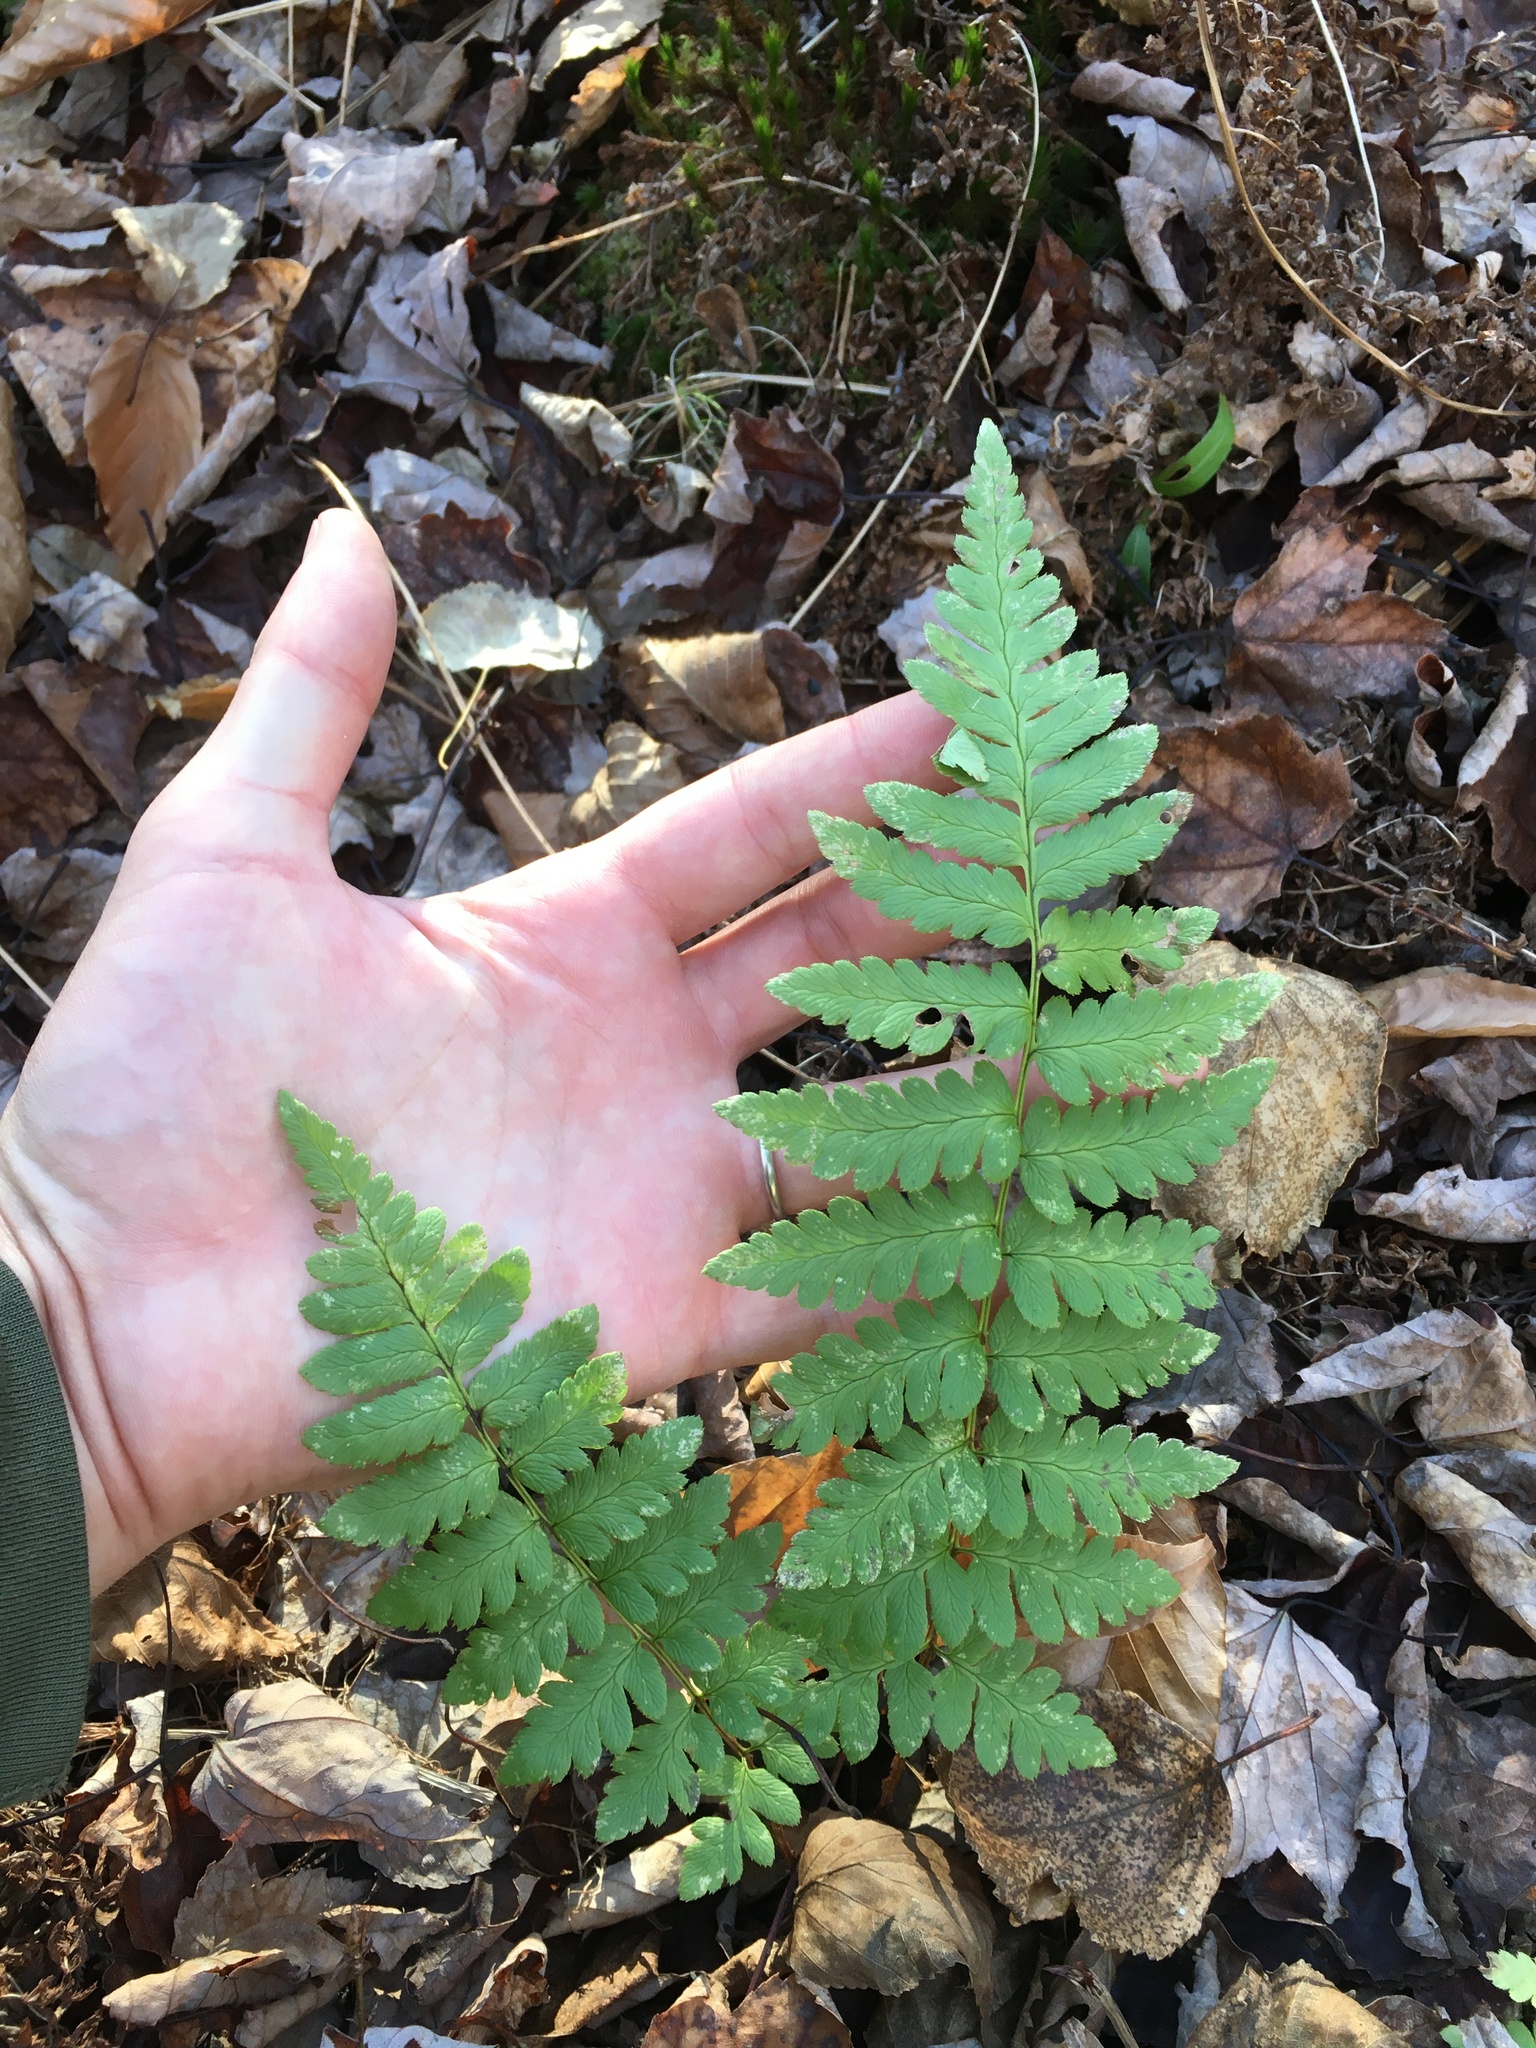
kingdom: Plantae
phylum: Tracheophyta
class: Polypodiopsida
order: Polypodiales
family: Dryopteridaceae
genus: Dryopteris
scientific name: Dryopteris cristata
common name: Crested wood fern
